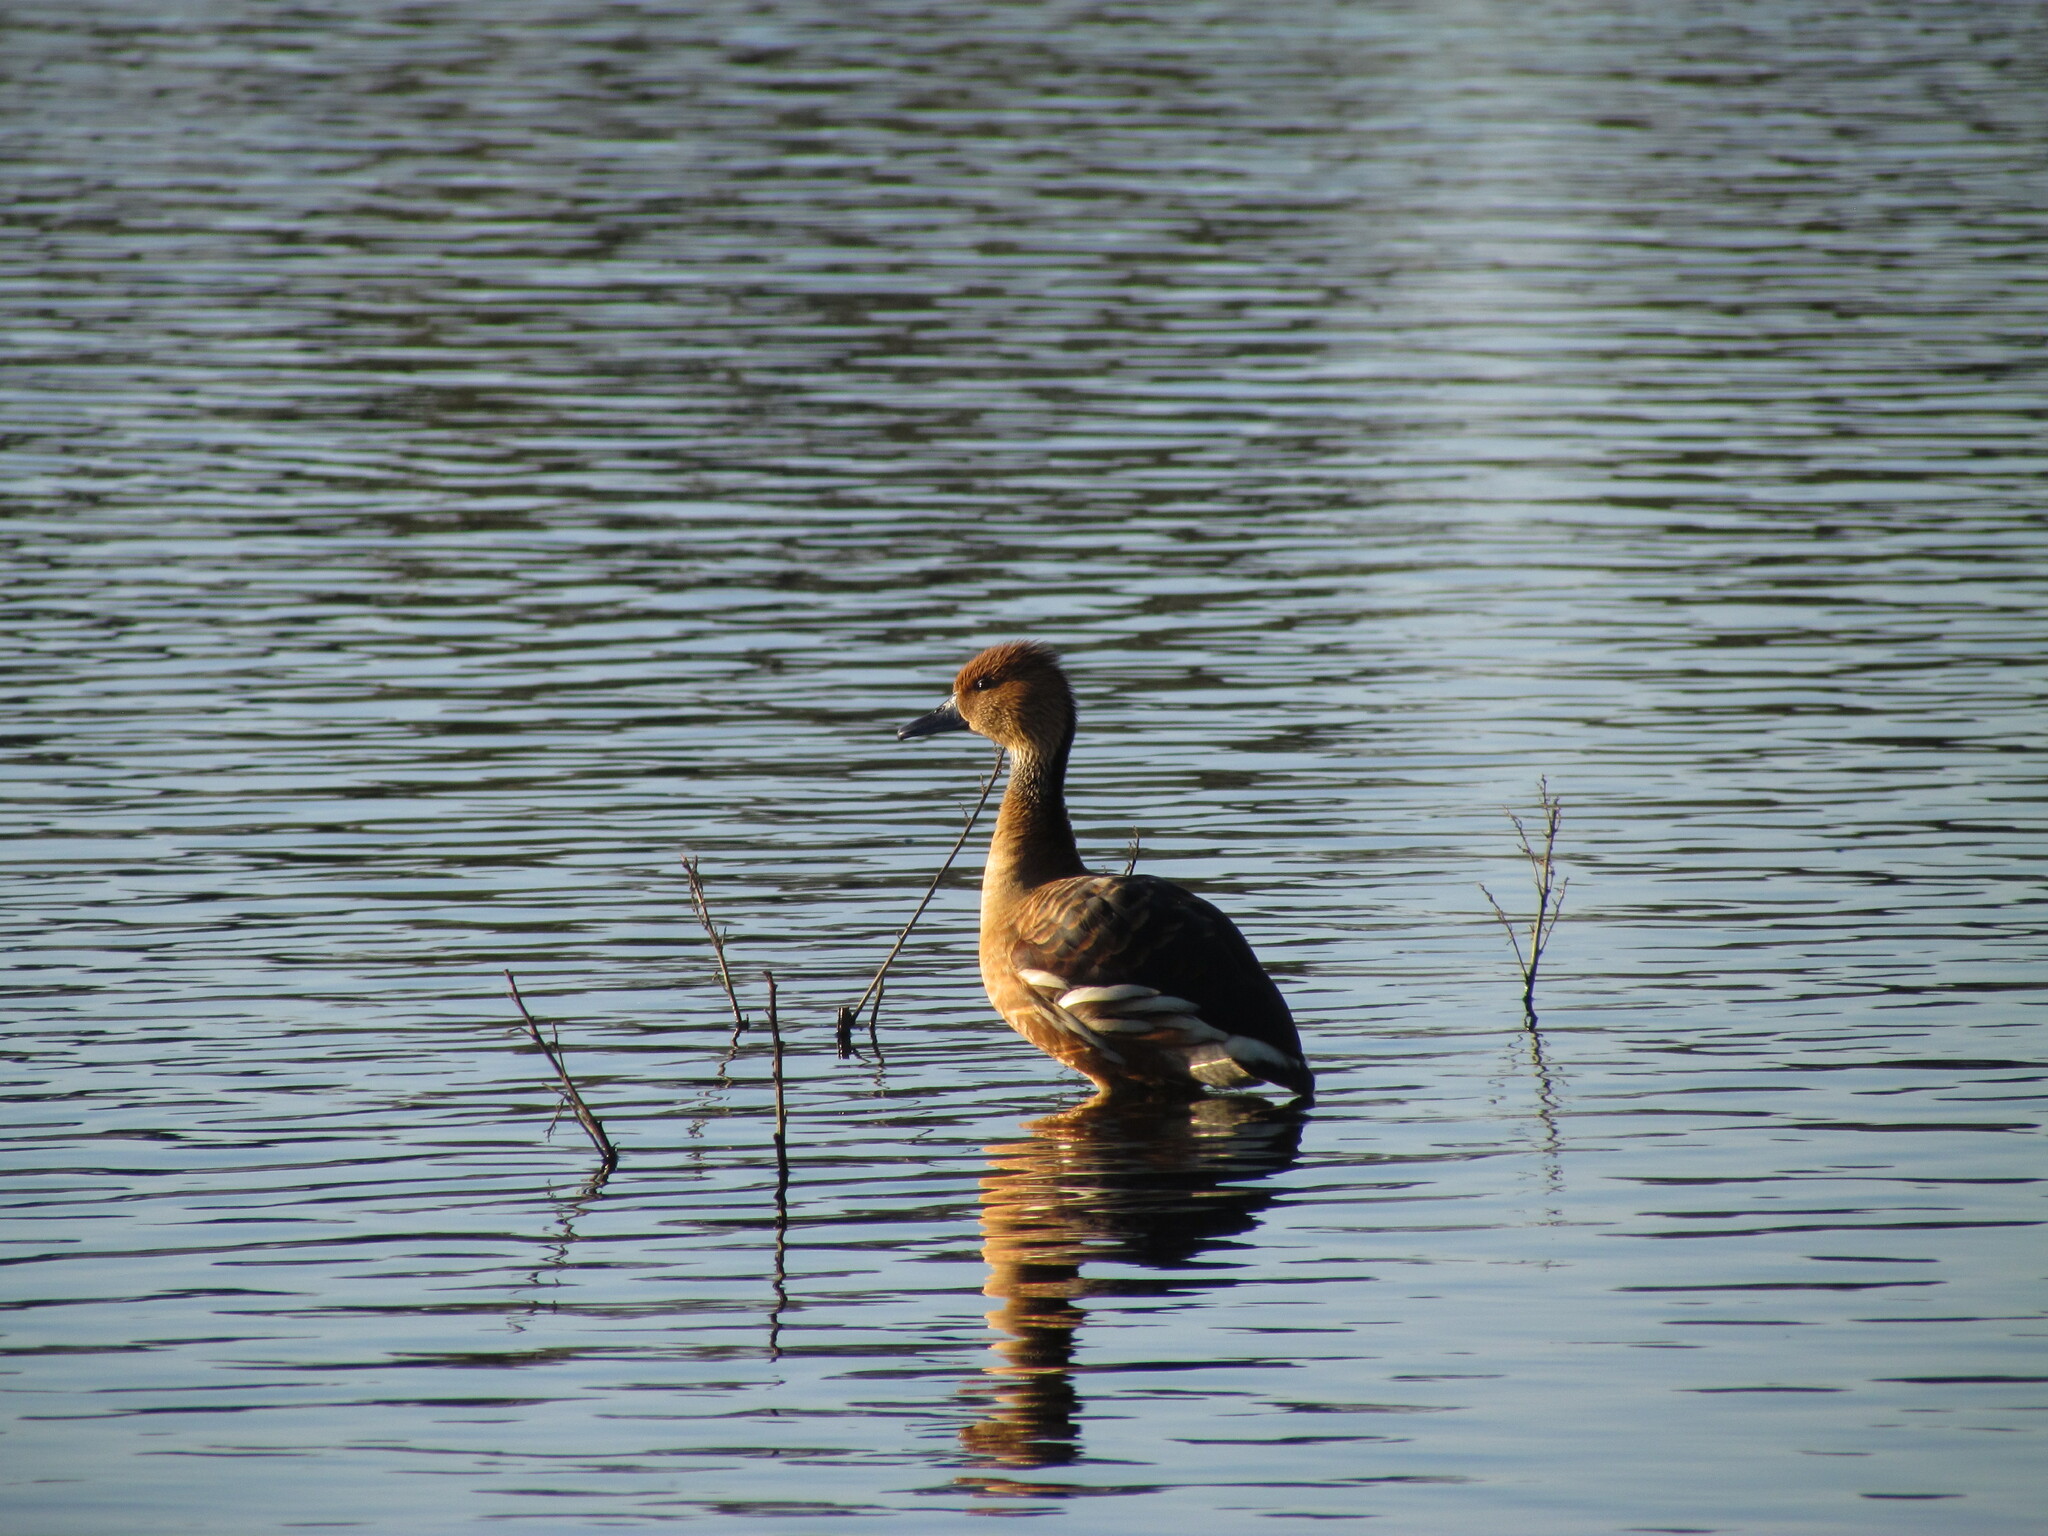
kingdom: Animalia
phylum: Chordata
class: Aves
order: Anseriformes
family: Anatidae
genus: Dendrocygna
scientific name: Dendrocygna bicolor
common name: Fulvous whistling duck
